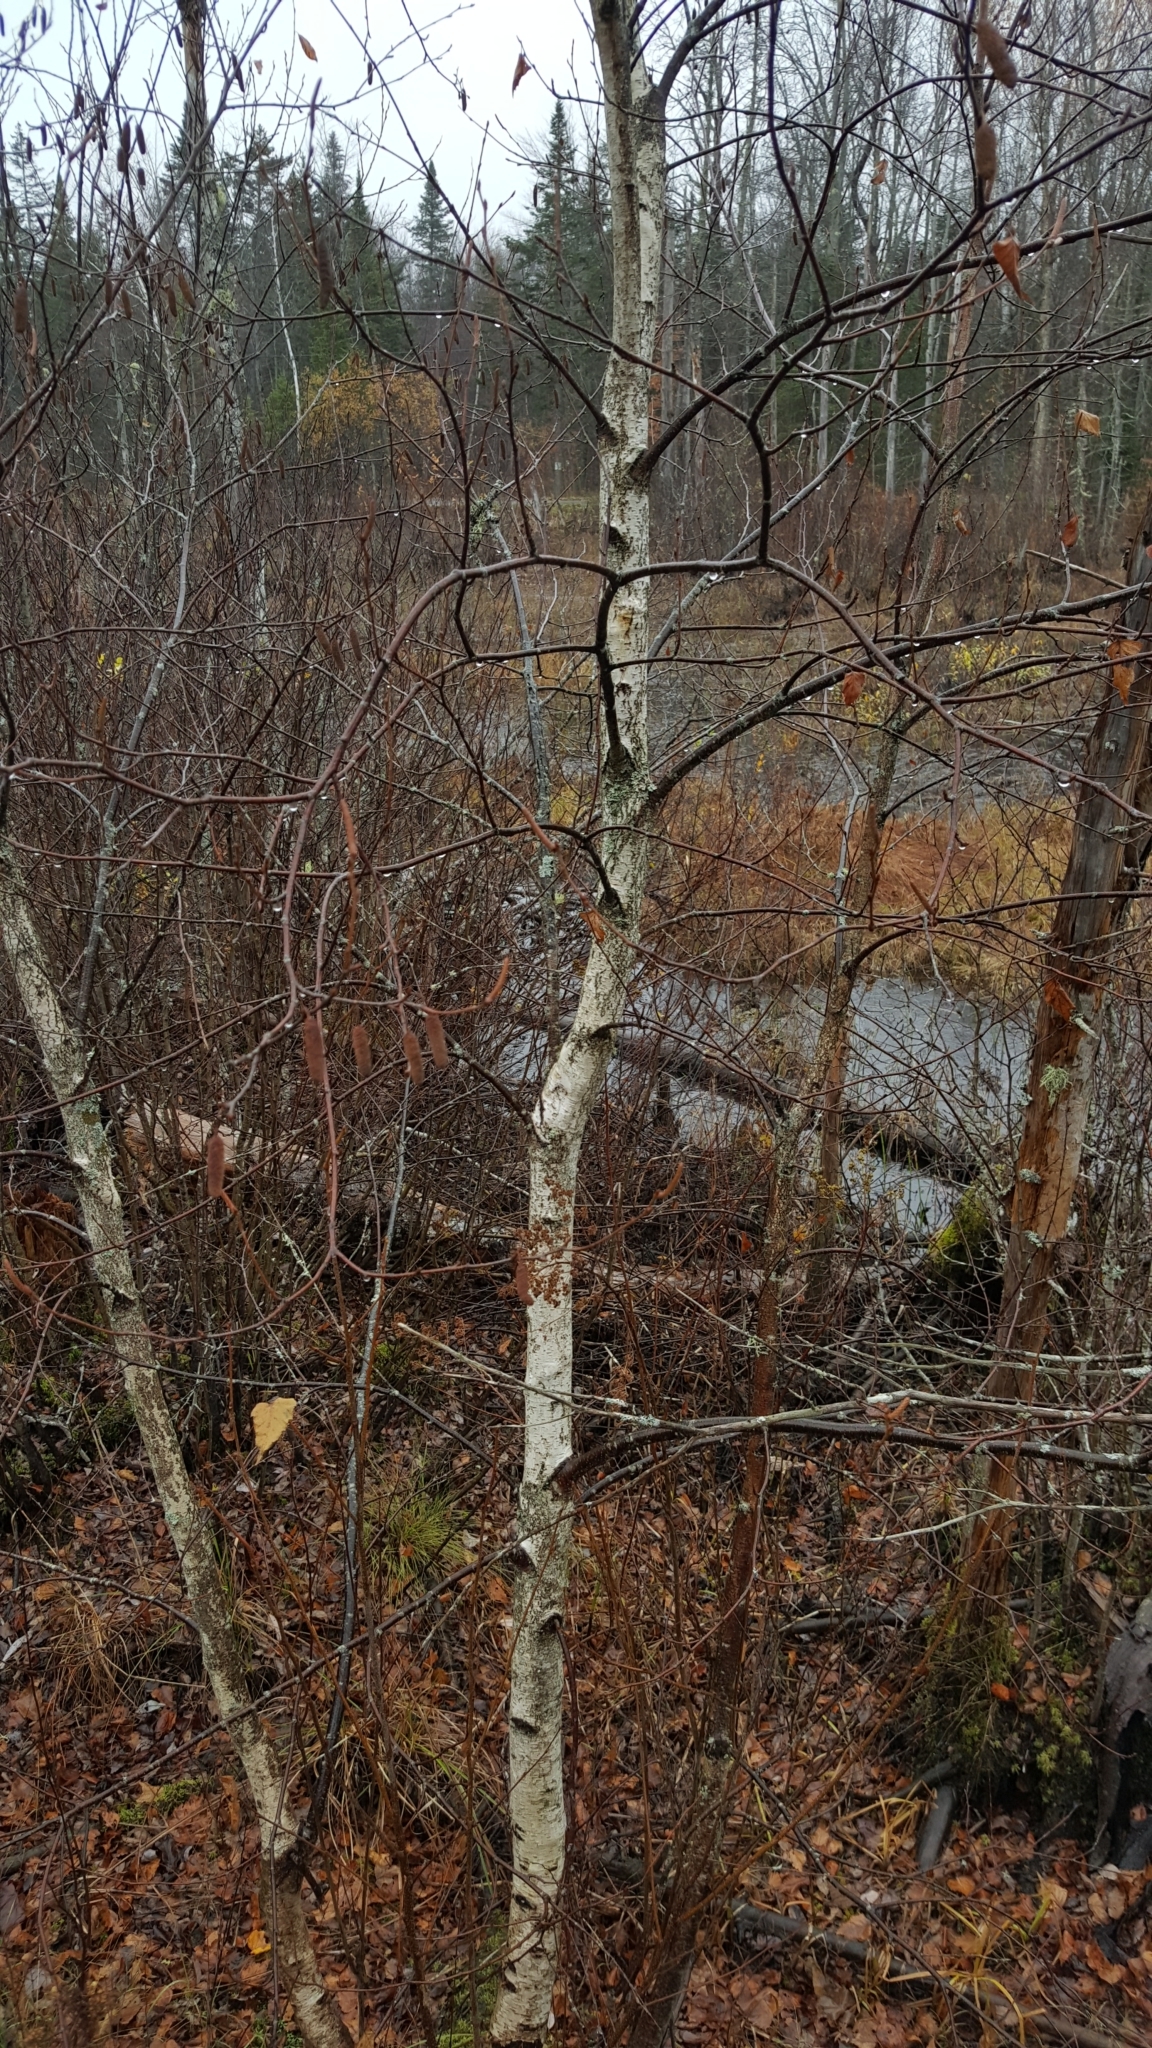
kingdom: Plantae
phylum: Tracheophyta
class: Magnoliopsida
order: Fagales
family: Betulaceae
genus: Betula
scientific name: Betula populifolia
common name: Fire birch
